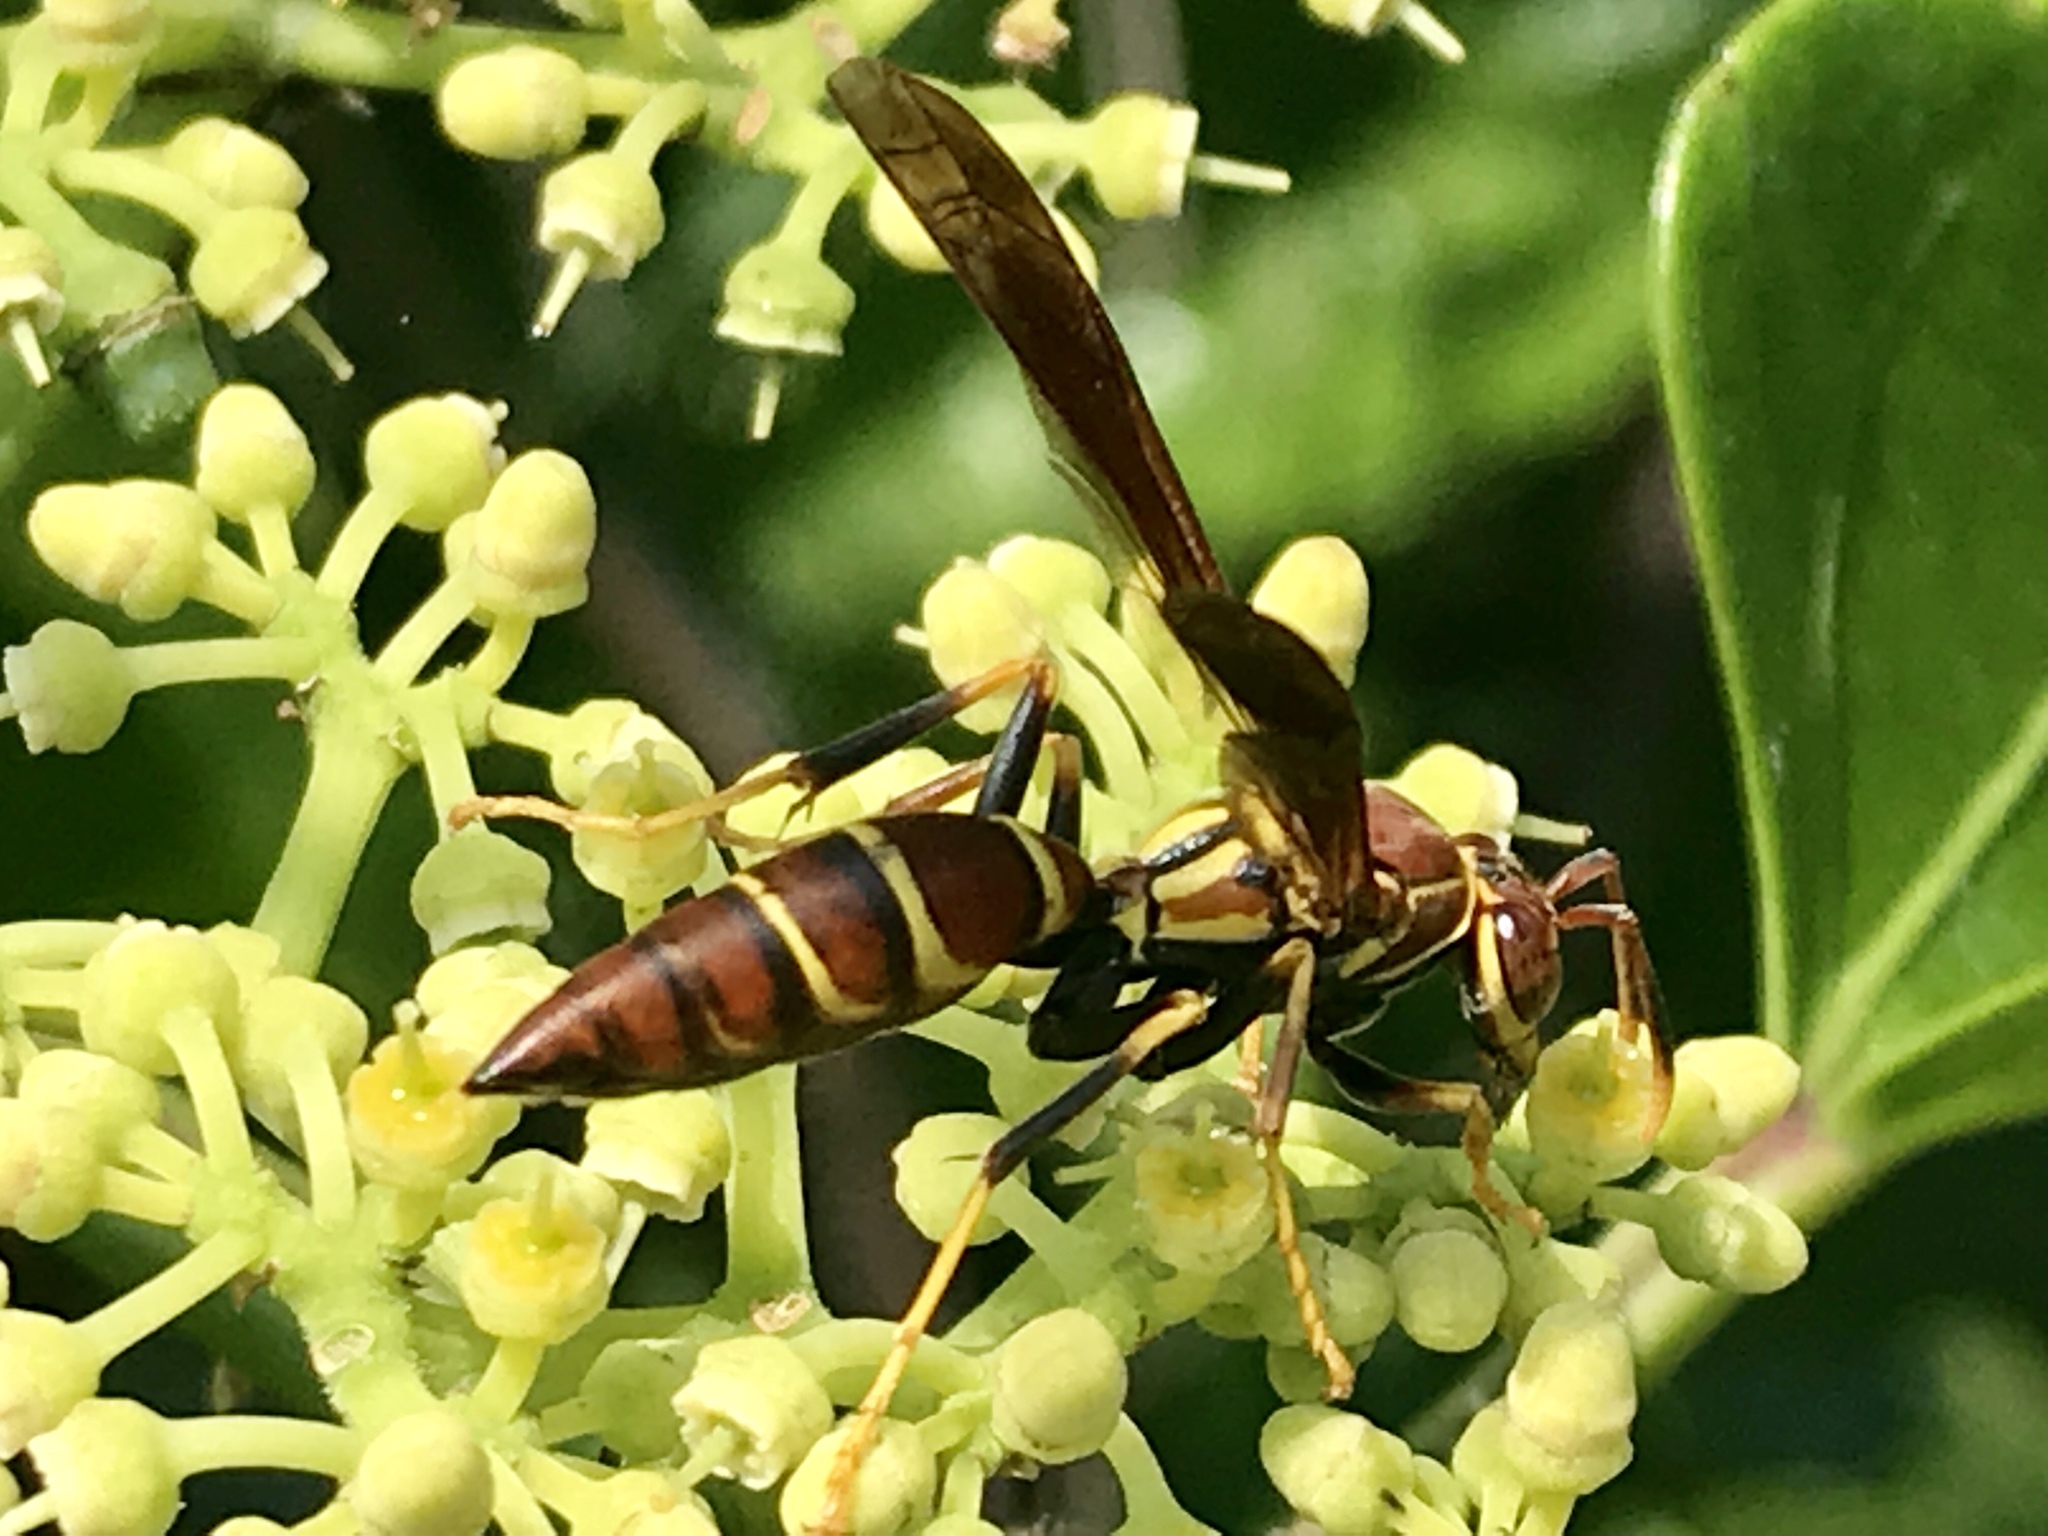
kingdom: Animalia
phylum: Arthropoda
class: Insecta
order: Hymenoptera
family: Eumenidae
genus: Polistes
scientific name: Polistes instabilis
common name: Unstable paper wasp
